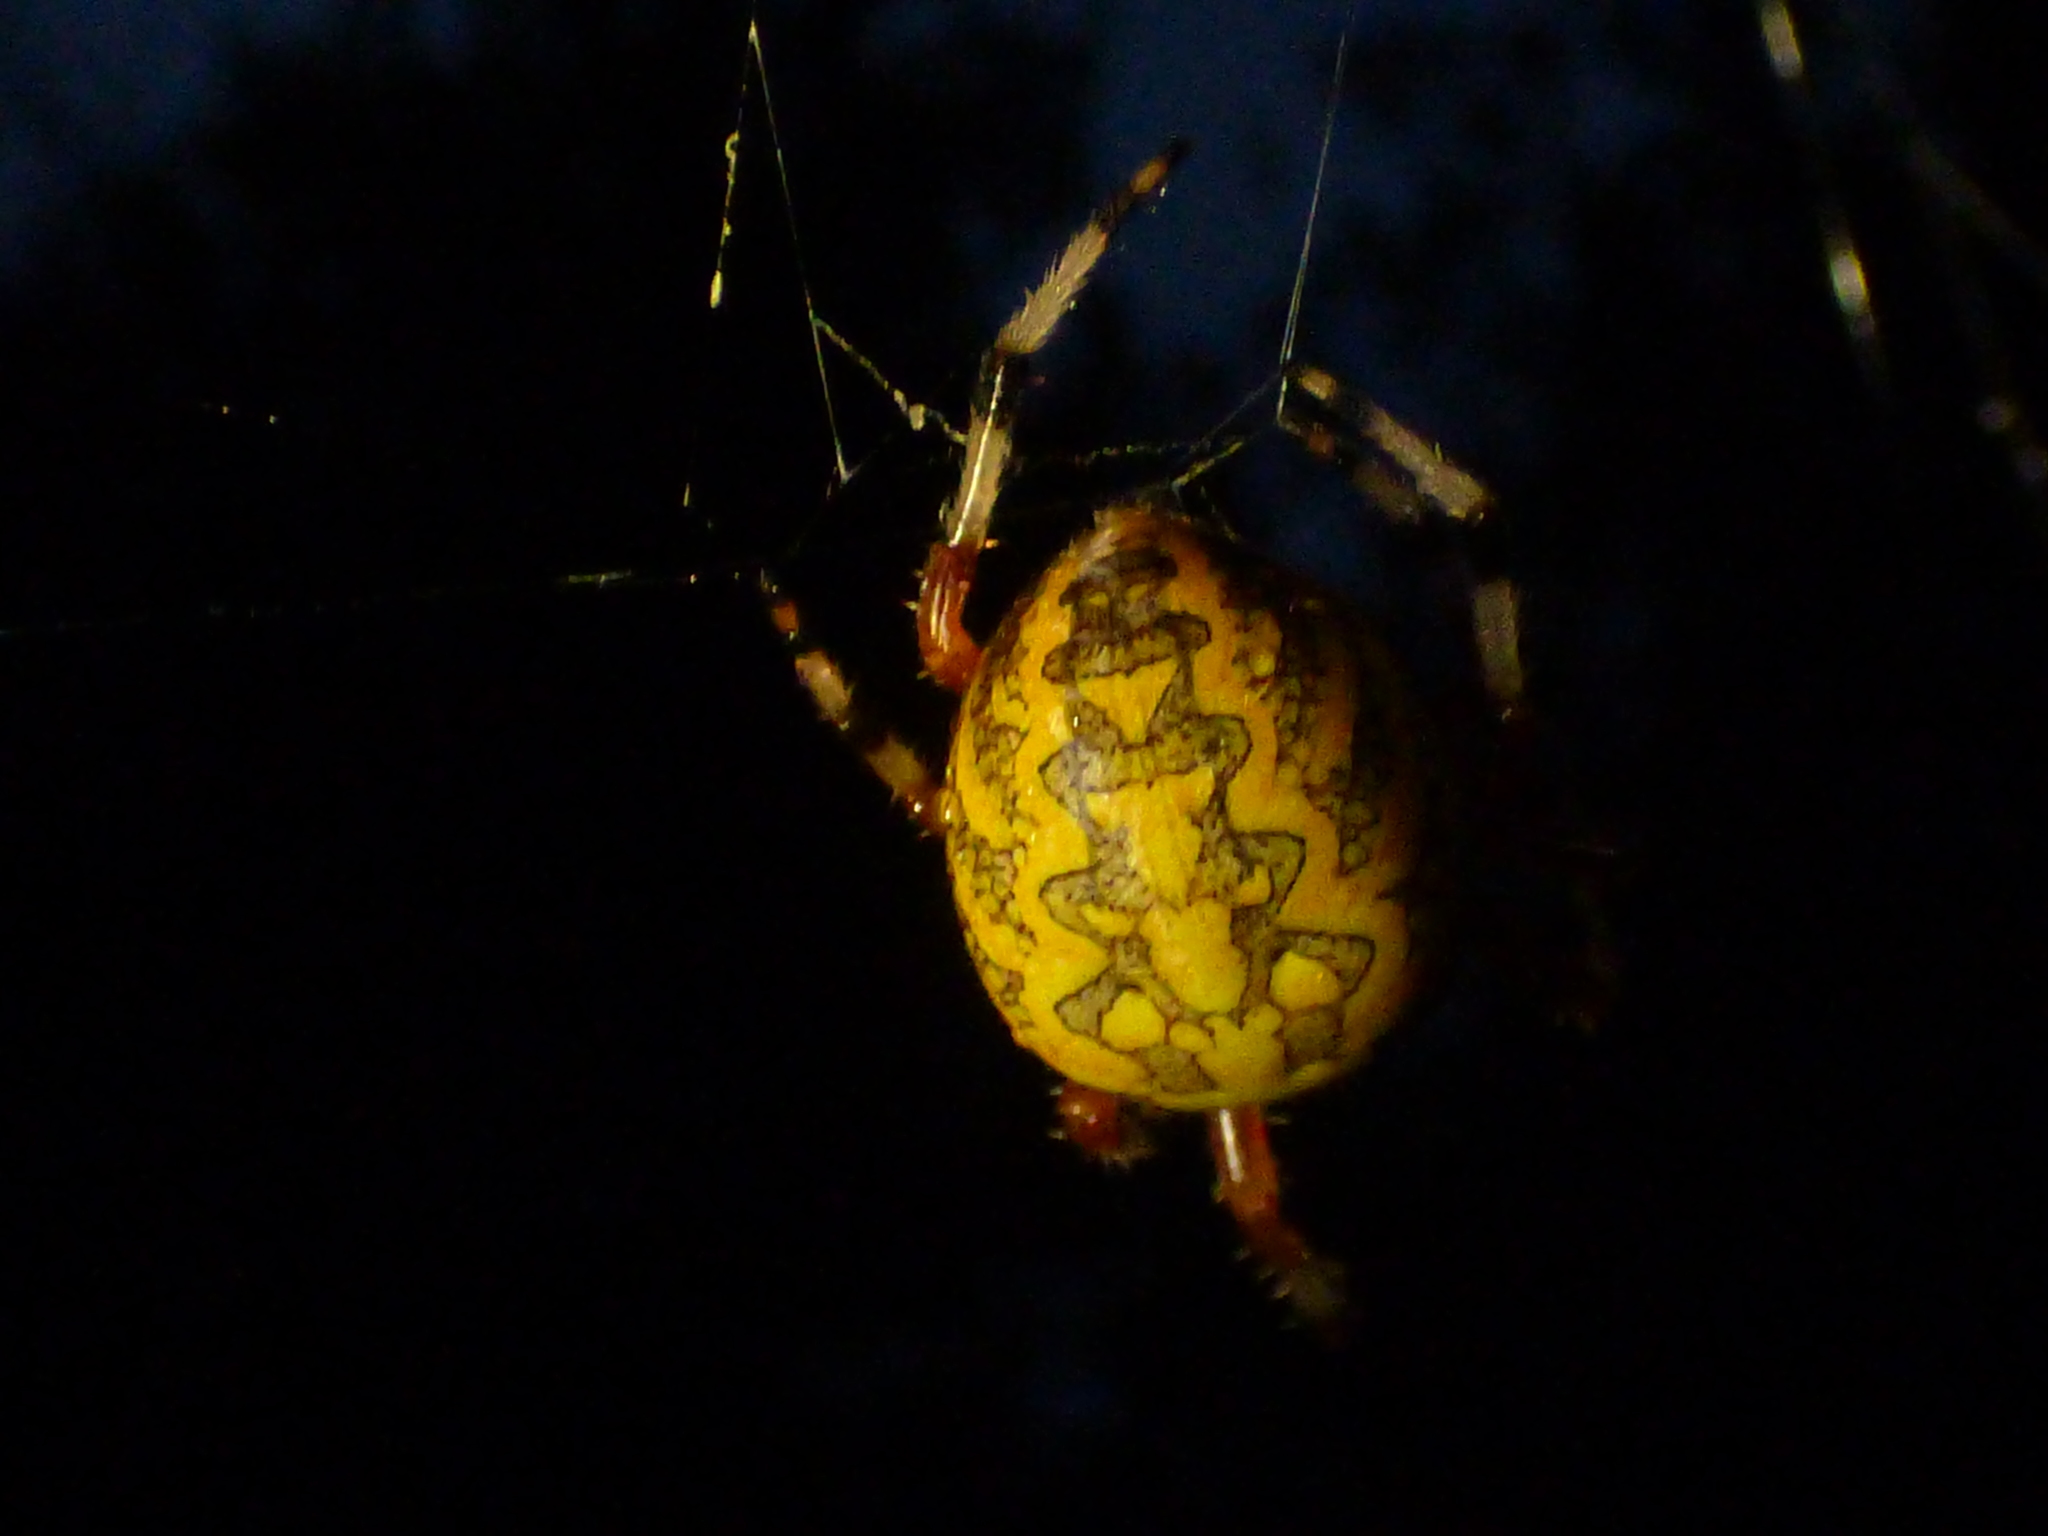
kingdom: Animalia
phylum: Arthropoda
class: Arachnida
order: Araneae
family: Araneidae
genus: Araneus
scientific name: Araneus marmoreus
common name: Marbled orbweaver
